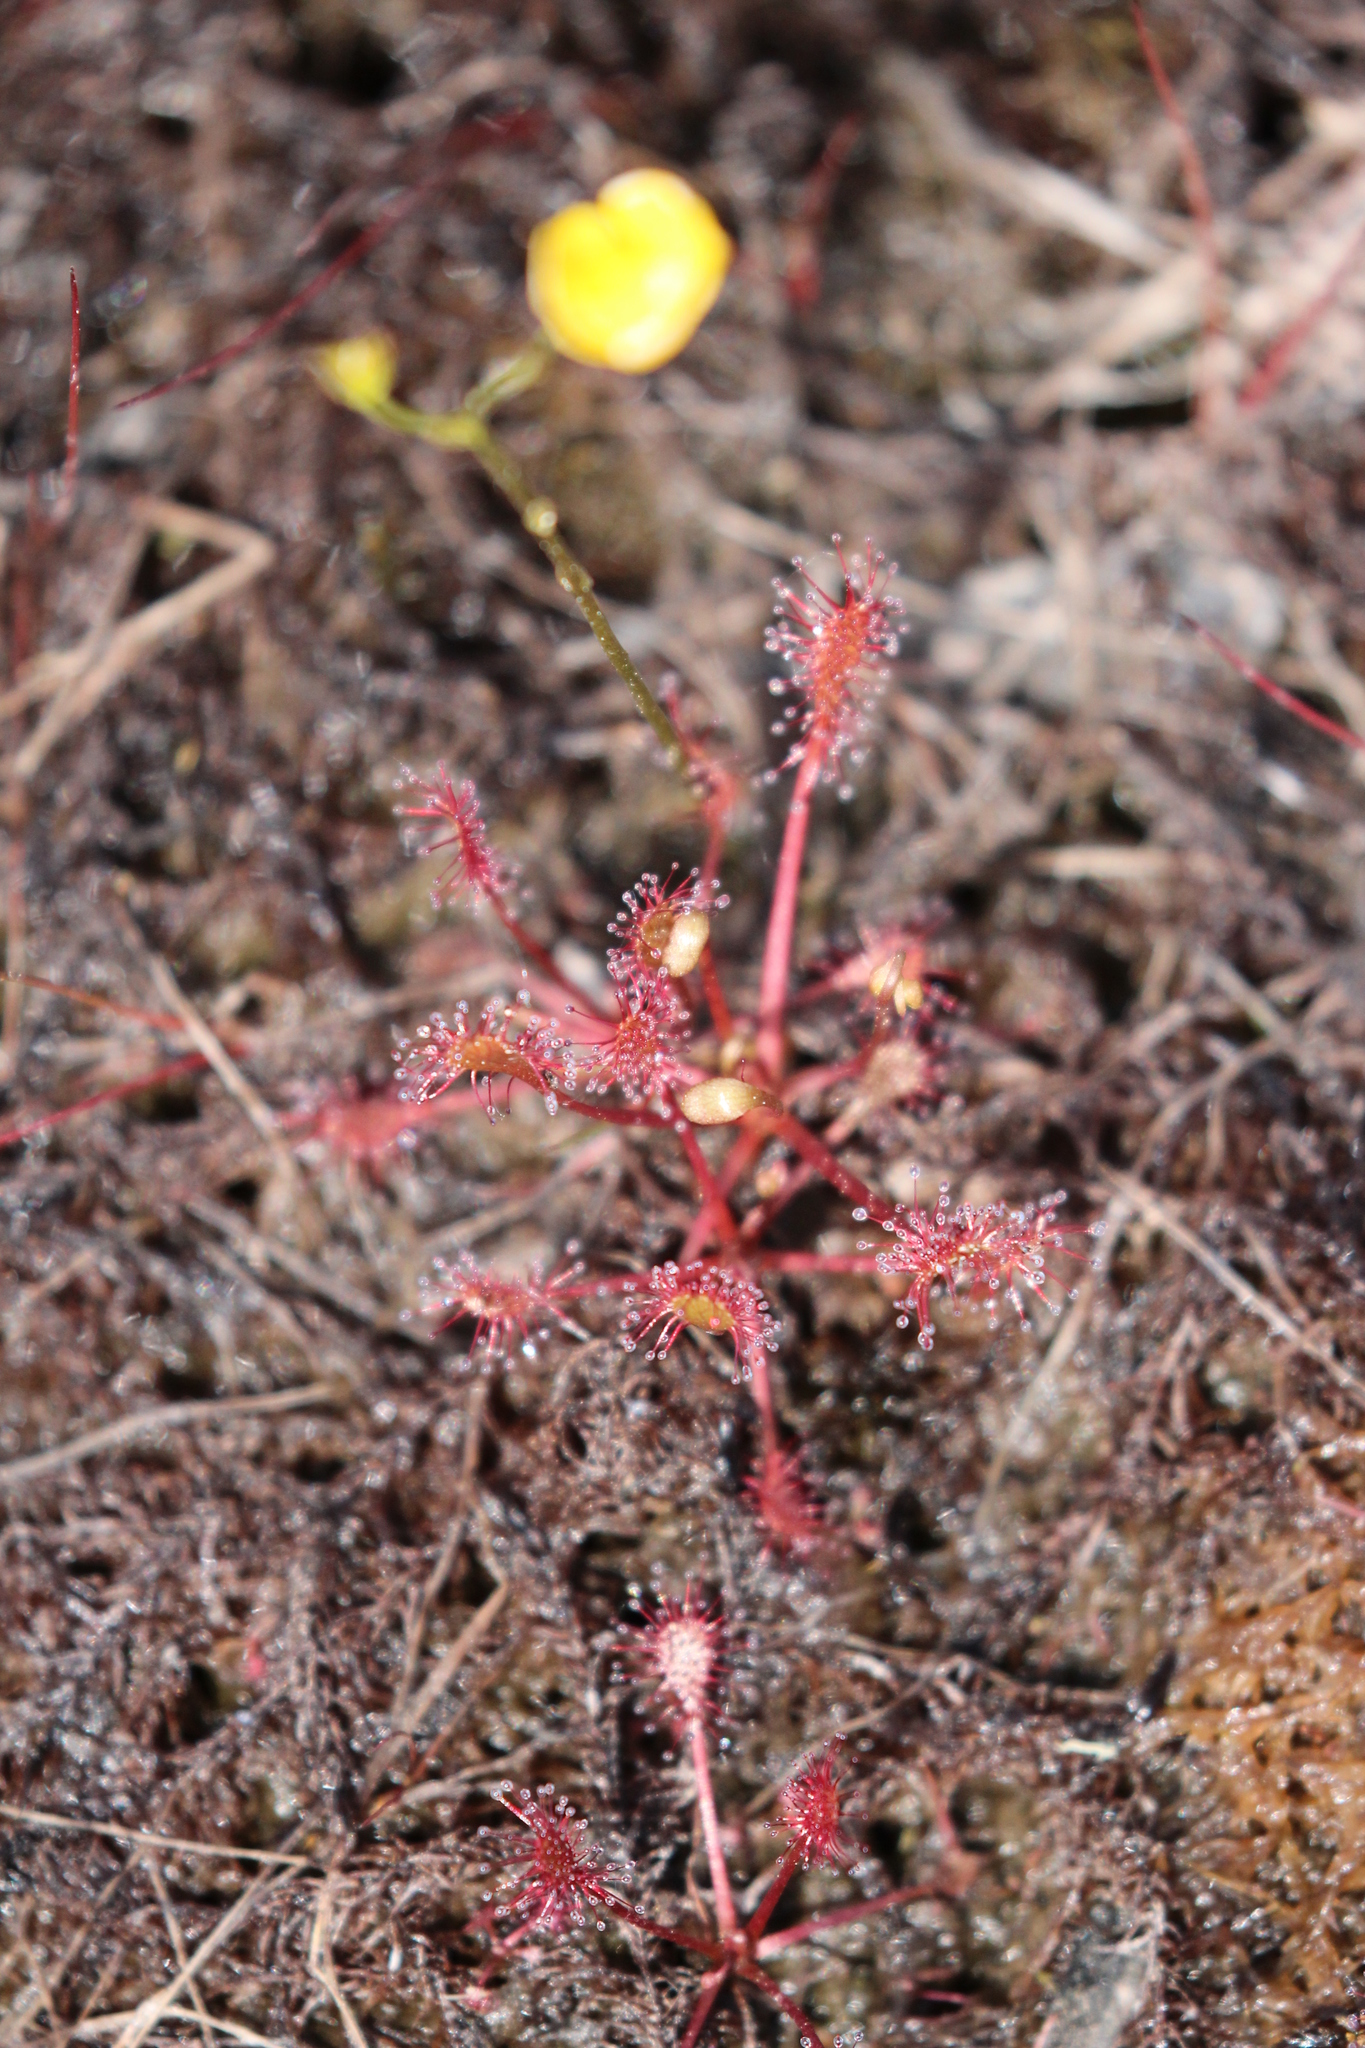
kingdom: Plantae
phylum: Tracheophyta
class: Magnoliopsida
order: Caryophyllales
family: Droseraceae
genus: Drosera
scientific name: Drosera intermedia
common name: Oblong-leaved sundew
